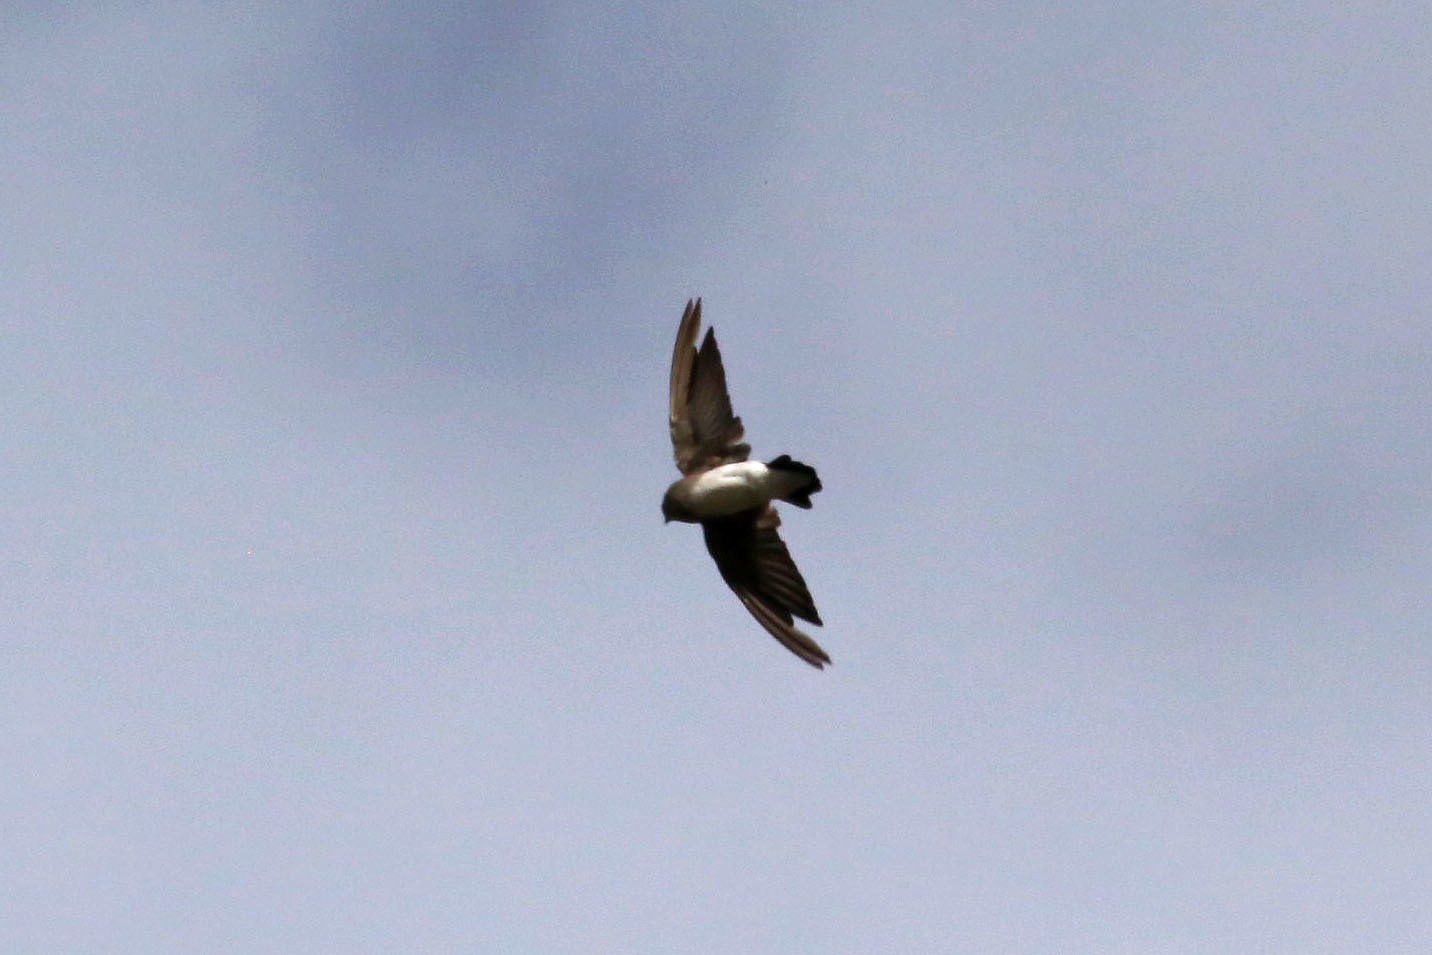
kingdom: Animalia
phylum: Chordata
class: Aves
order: Passeriformes
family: Hirundinidae
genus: Stelgidopteryx
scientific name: Stelgidopteryx serripennis
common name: Northern rough-winged swallow
